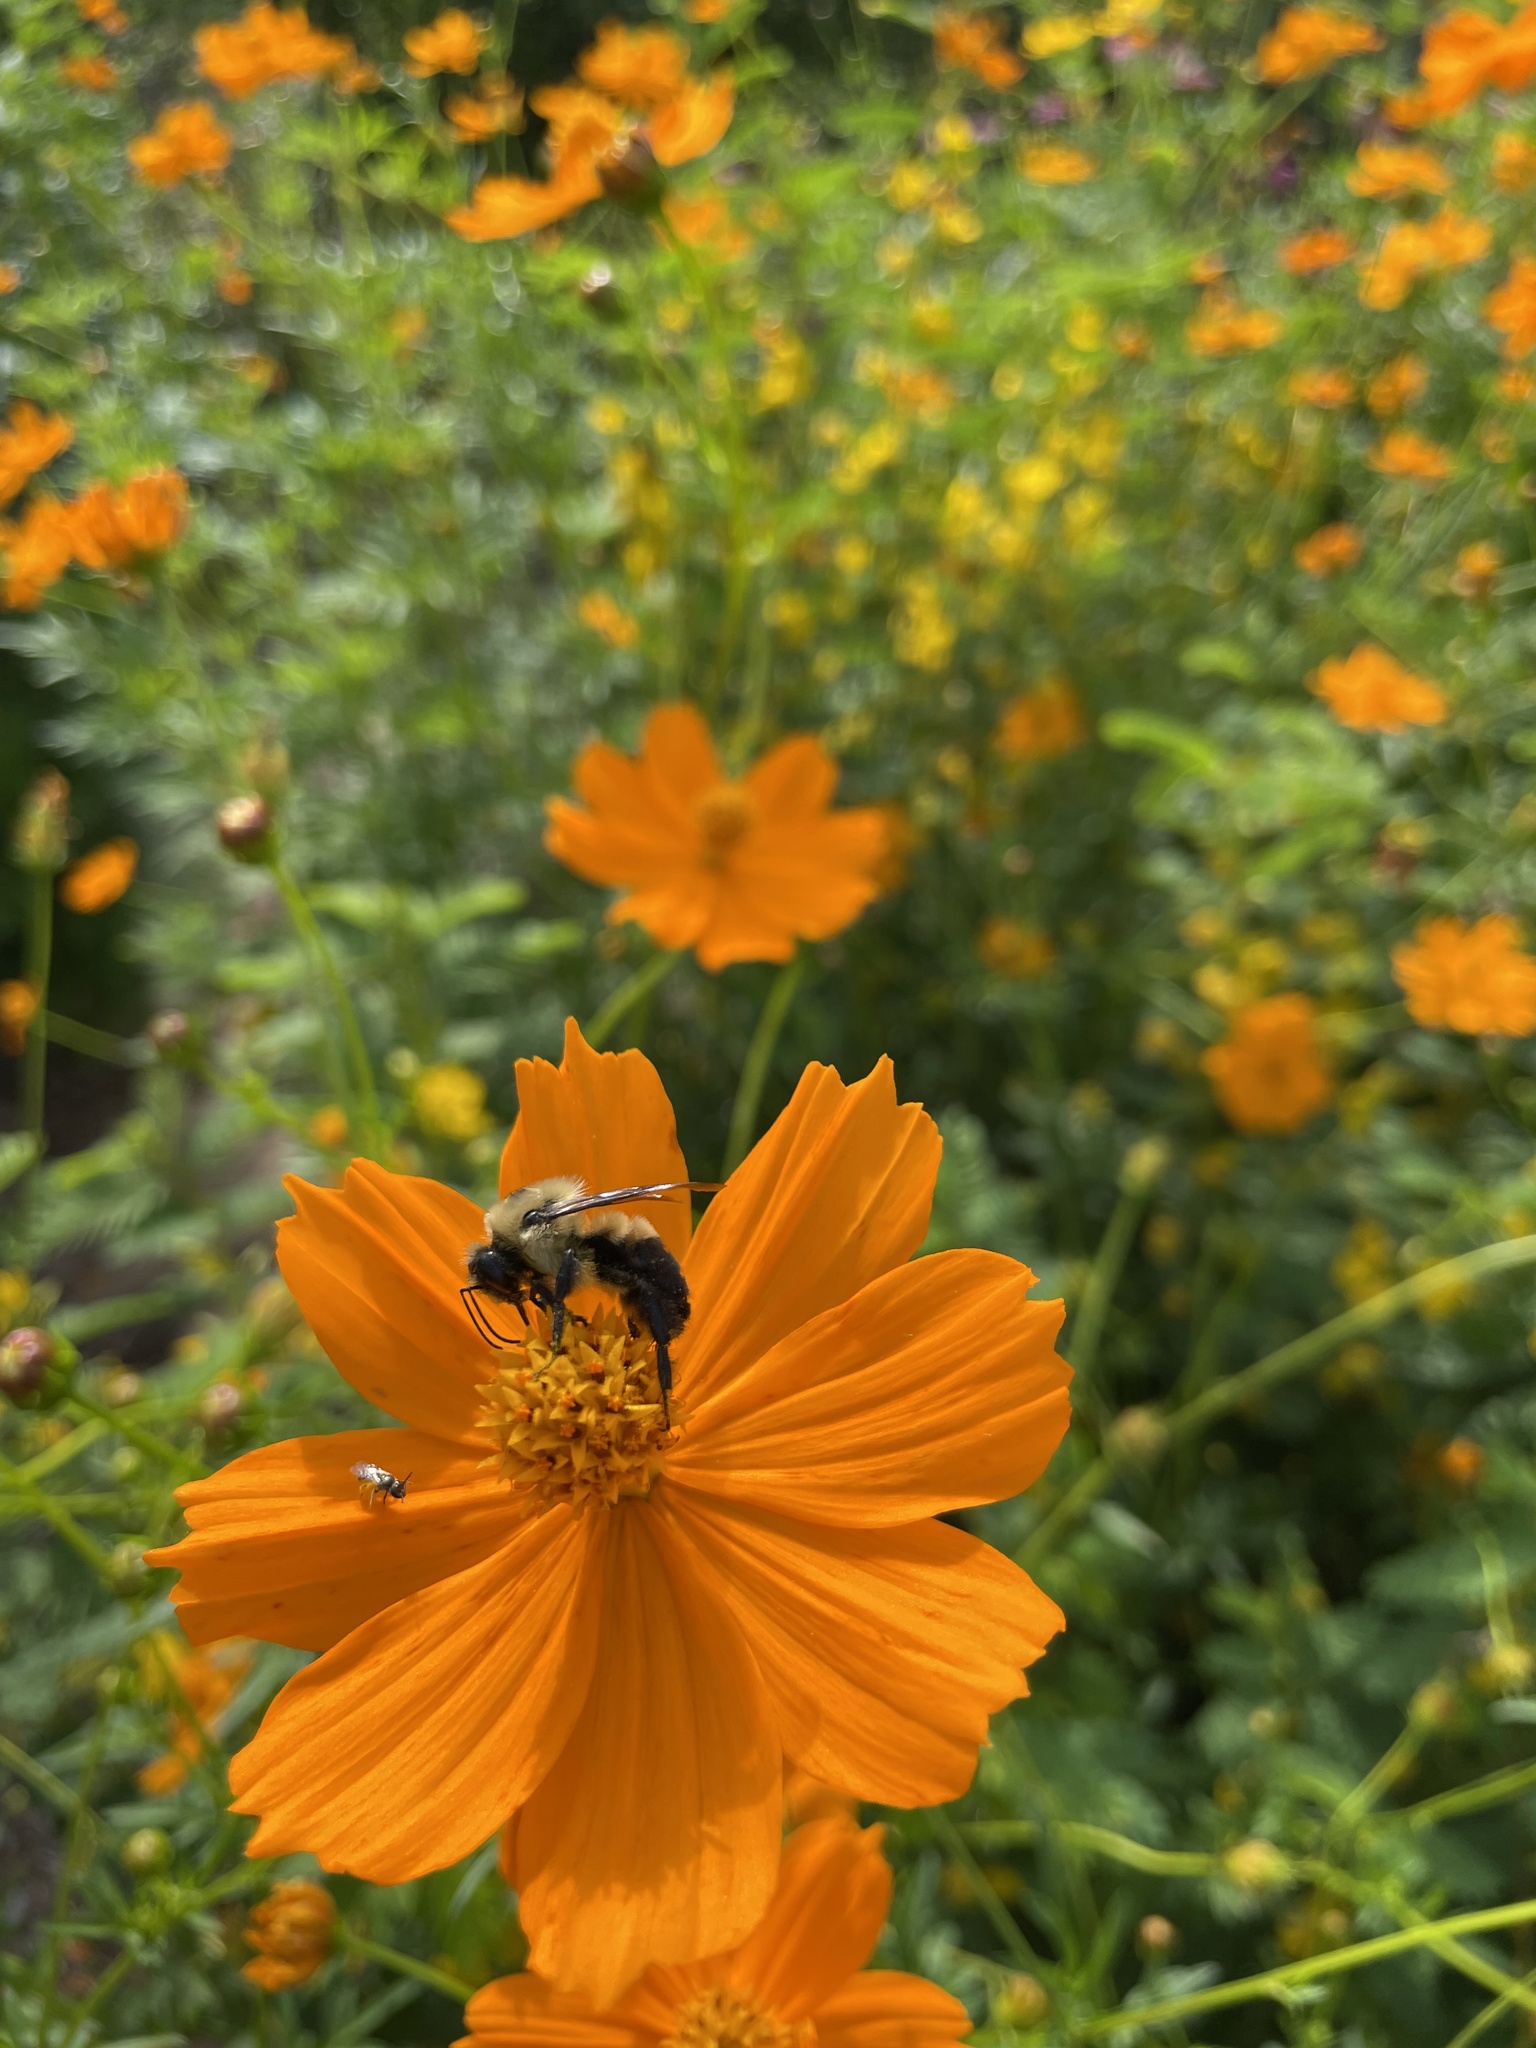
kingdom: Animalia
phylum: Arthropoda
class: Insecta
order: Hymenoptera
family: Apidae
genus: Bombus
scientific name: Bombus griseocollis
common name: Brown-belted bumble bee
